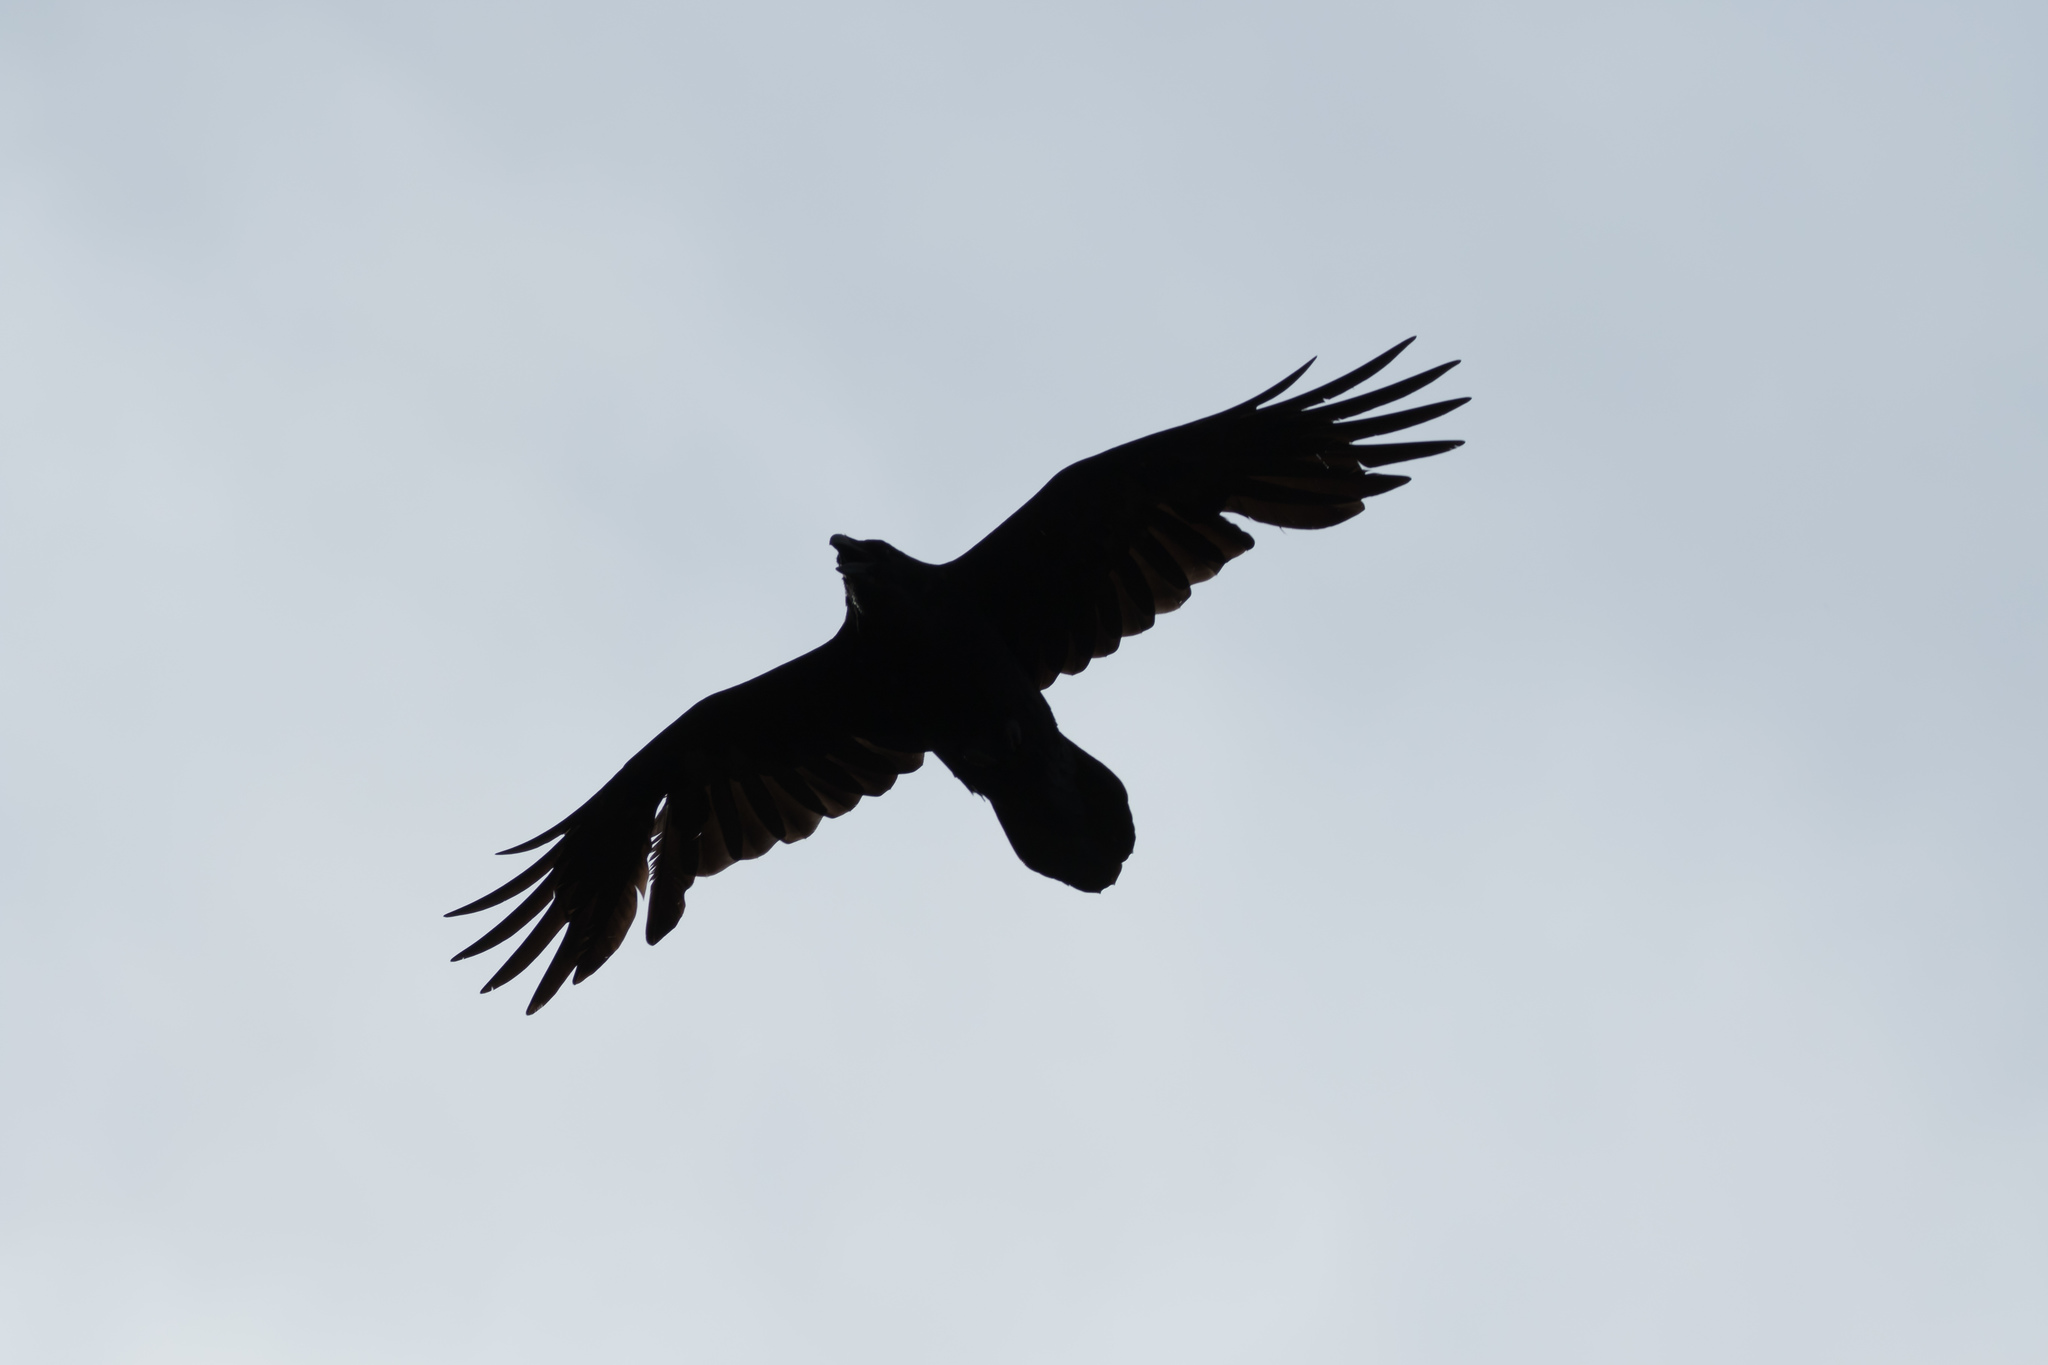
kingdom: Animalia
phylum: Chordata
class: Aves
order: Passeriformes
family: Corvidae
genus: Corvus
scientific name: Corvus corax
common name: Common raven
